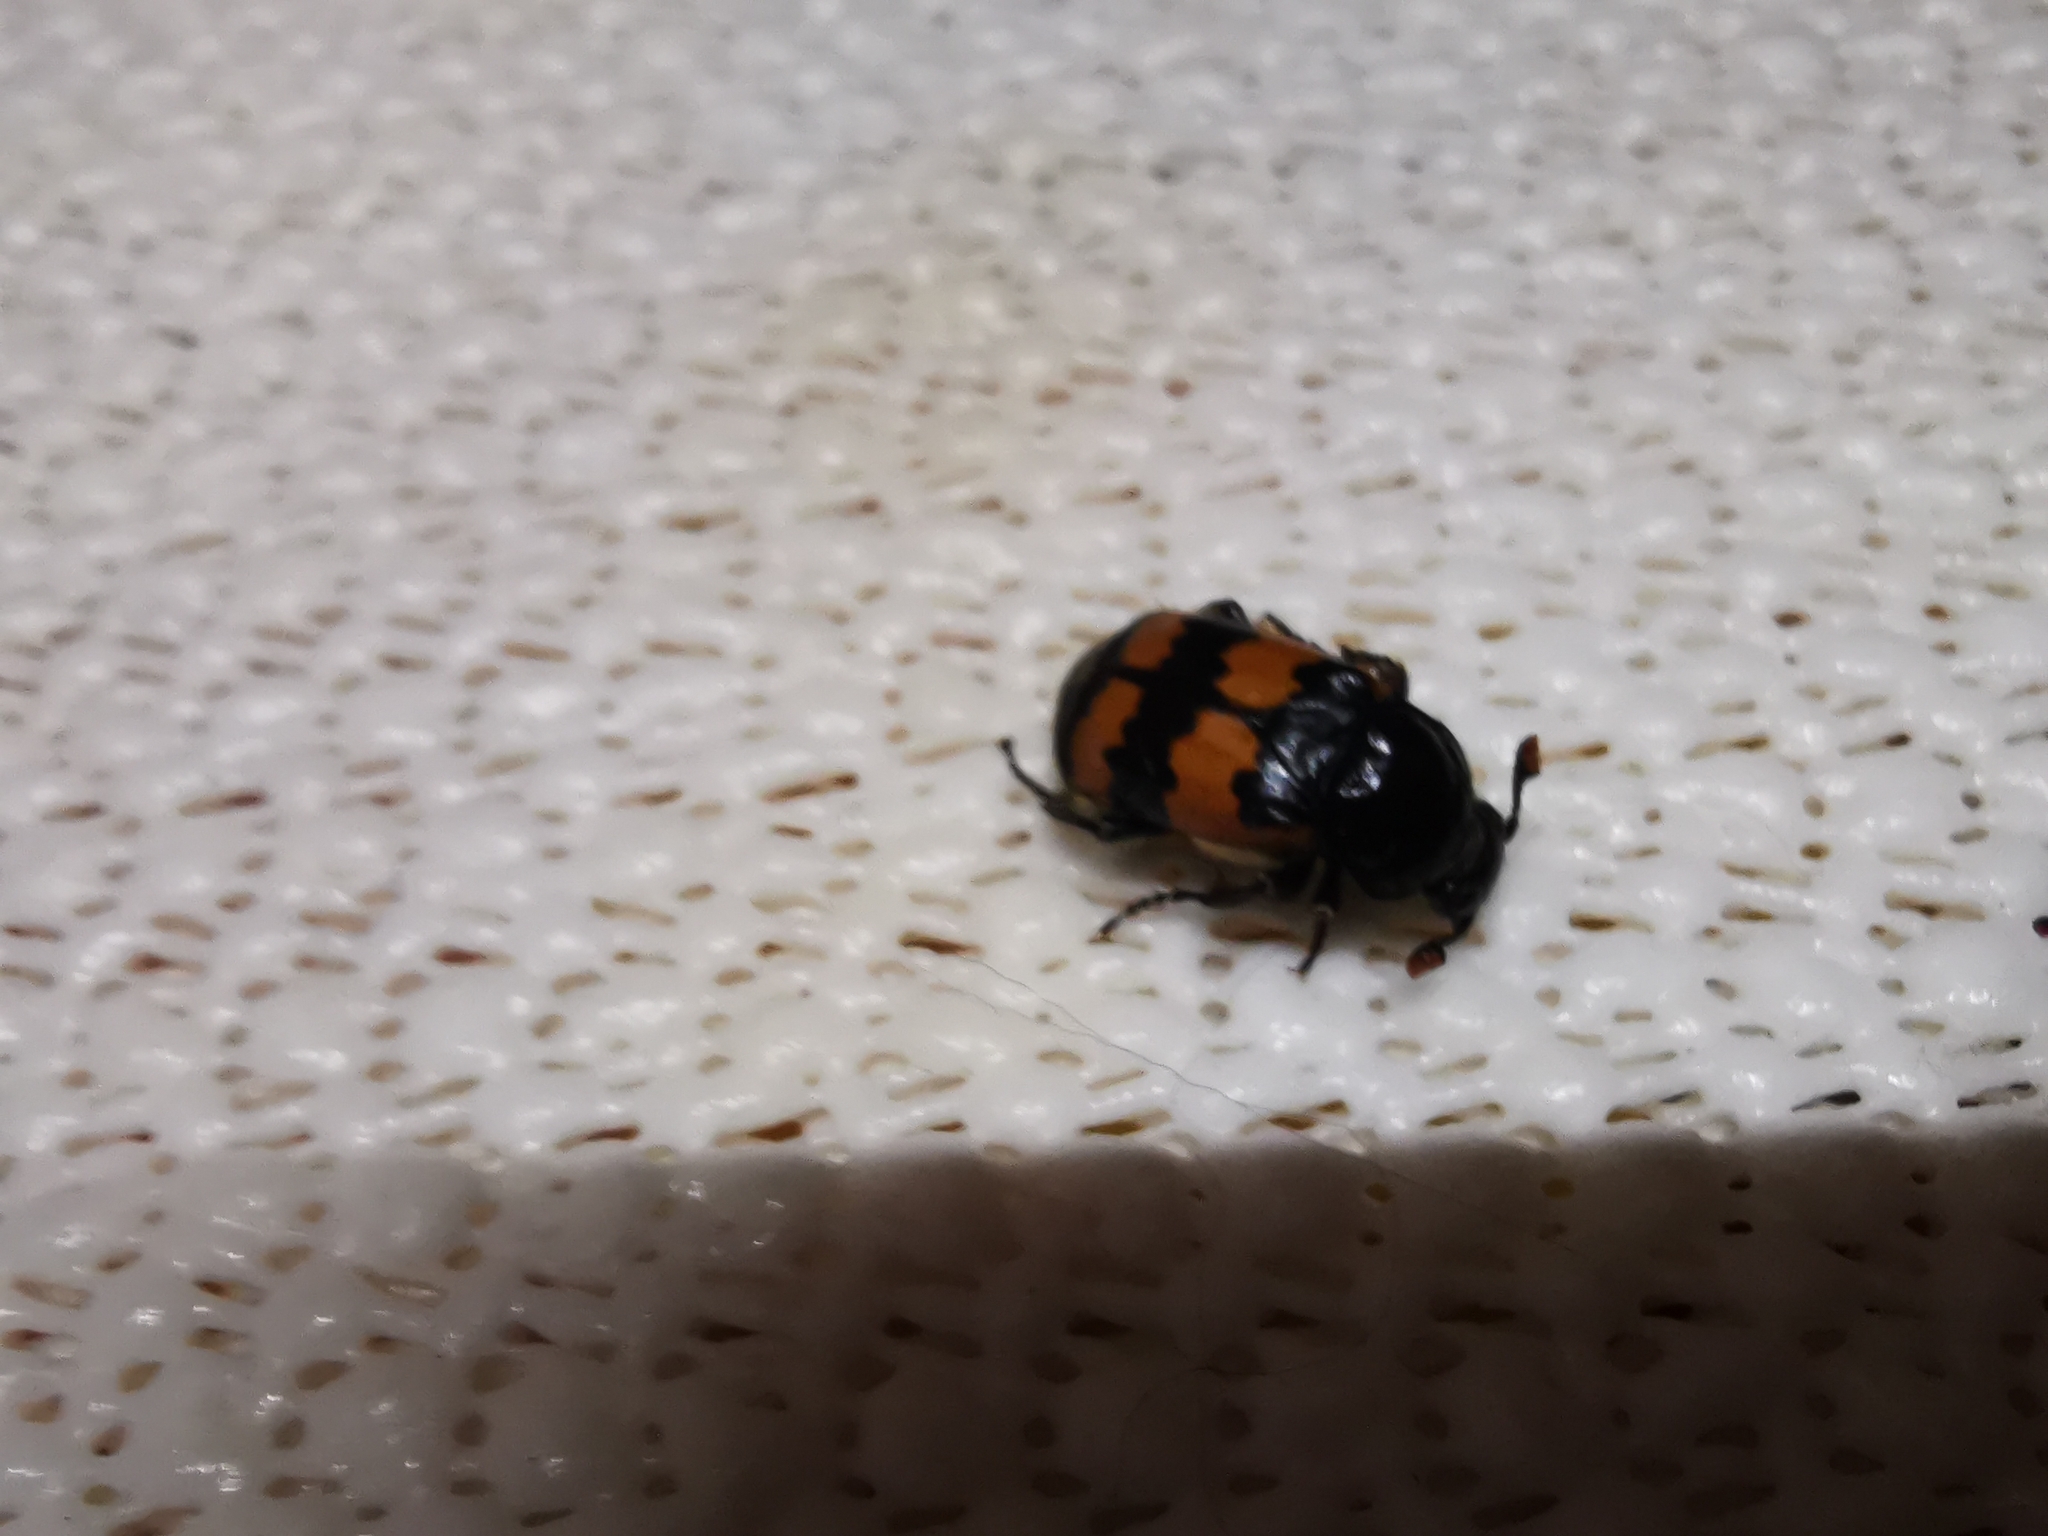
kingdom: Animalia
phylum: Arthropoda
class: Insecta
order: Coleoptera
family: Staphylinidae
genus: Nicrophorus
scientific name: Nicrophorus vespillo
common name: Common burying beetle
